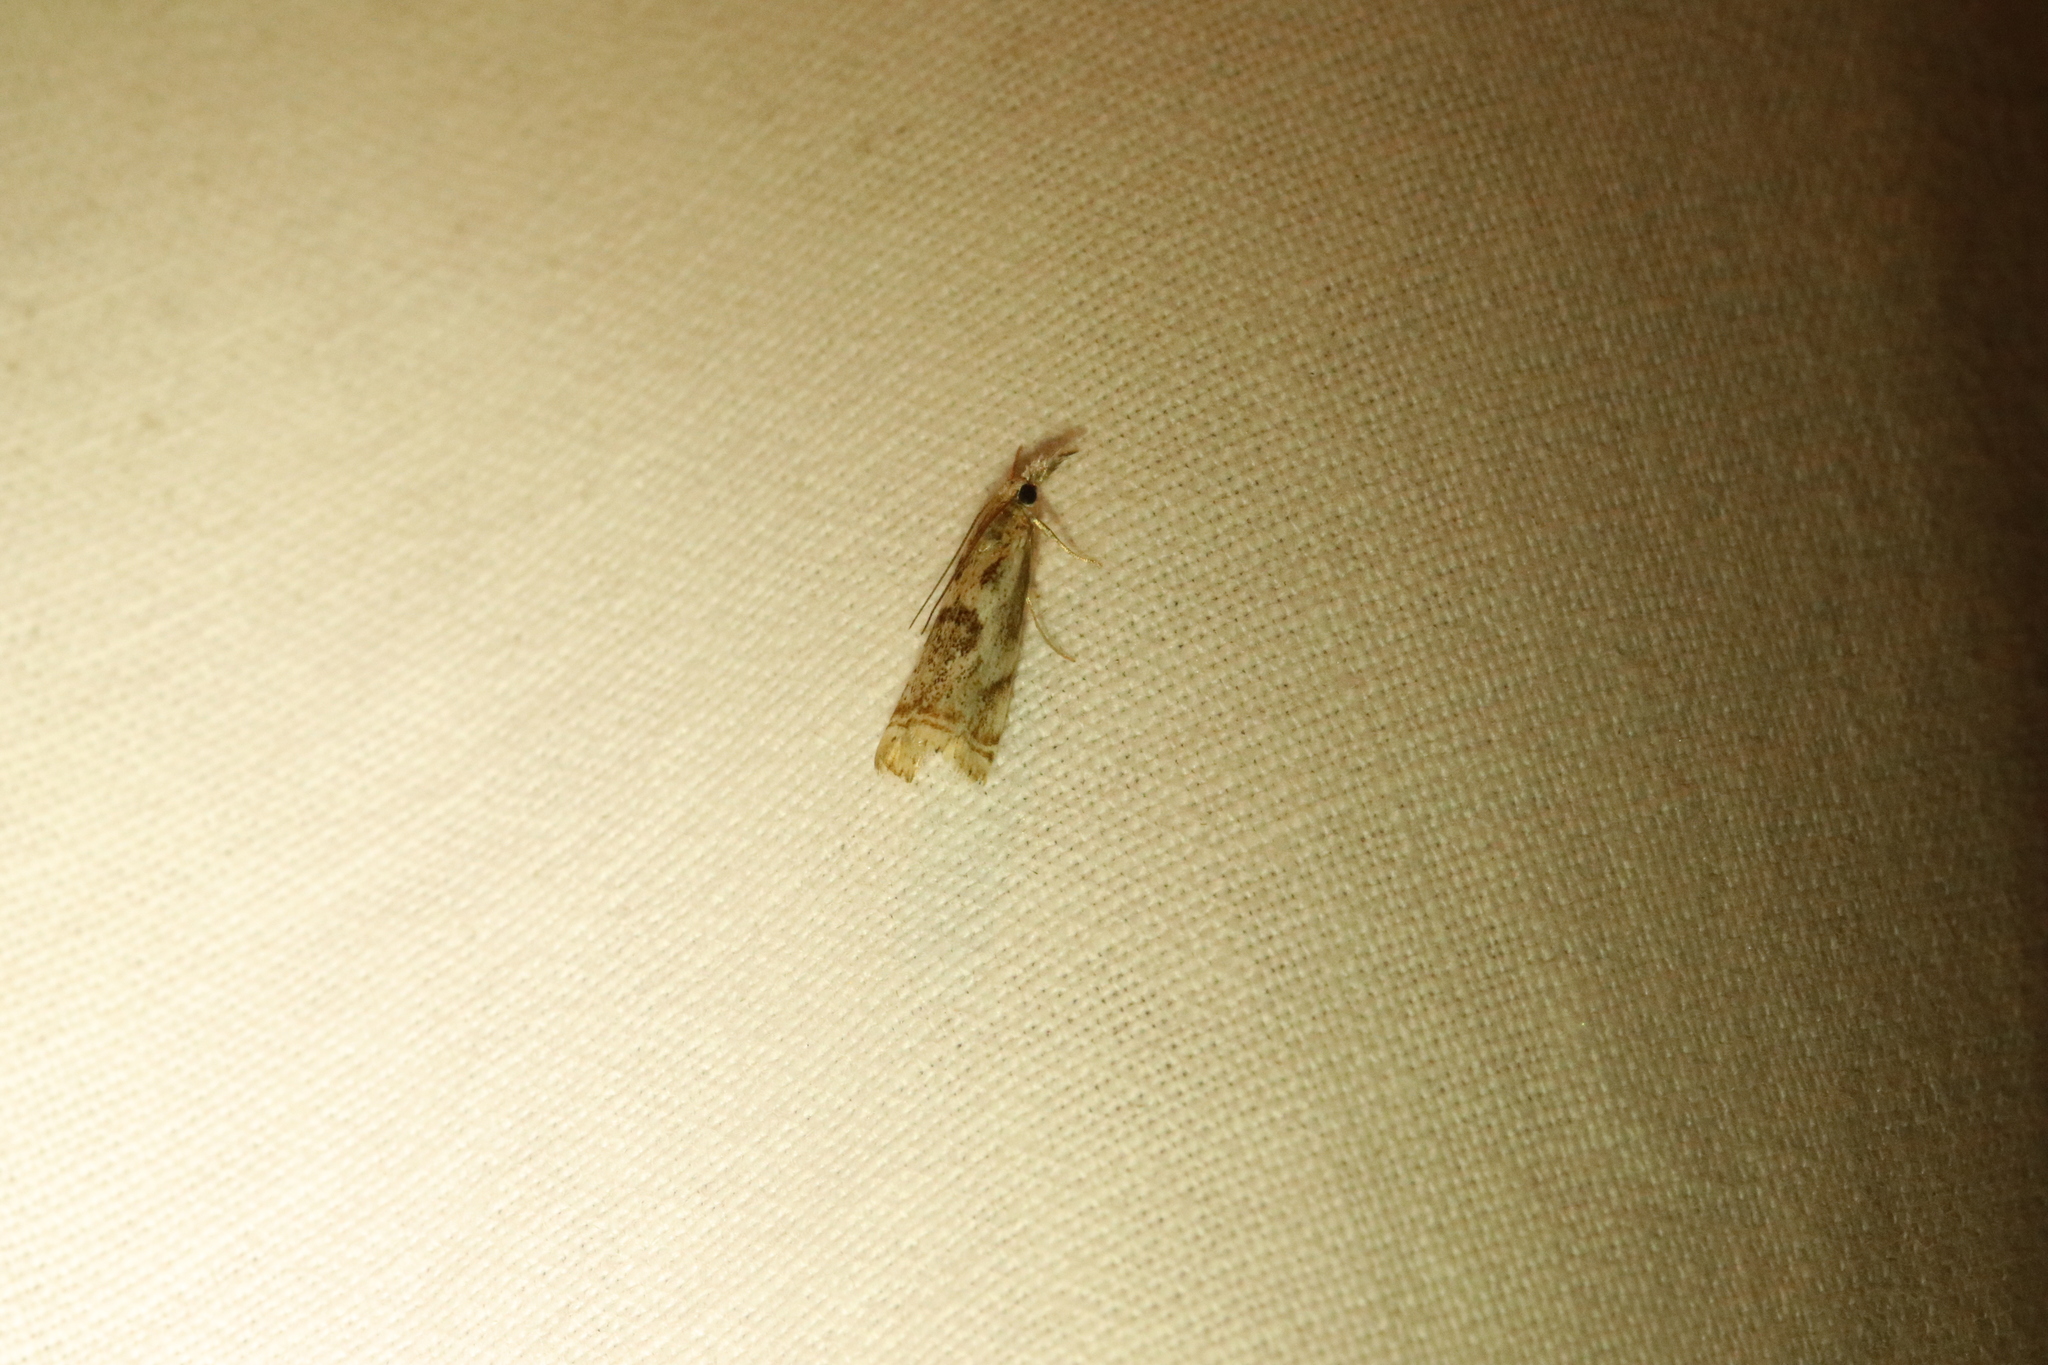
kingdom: Animalia
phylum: Arthropoda
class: Insecta
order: Lepidoptera
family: Crambidae
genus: Microcrambus
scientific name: Microcrambus elegans
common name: Elegant grass-veneer
